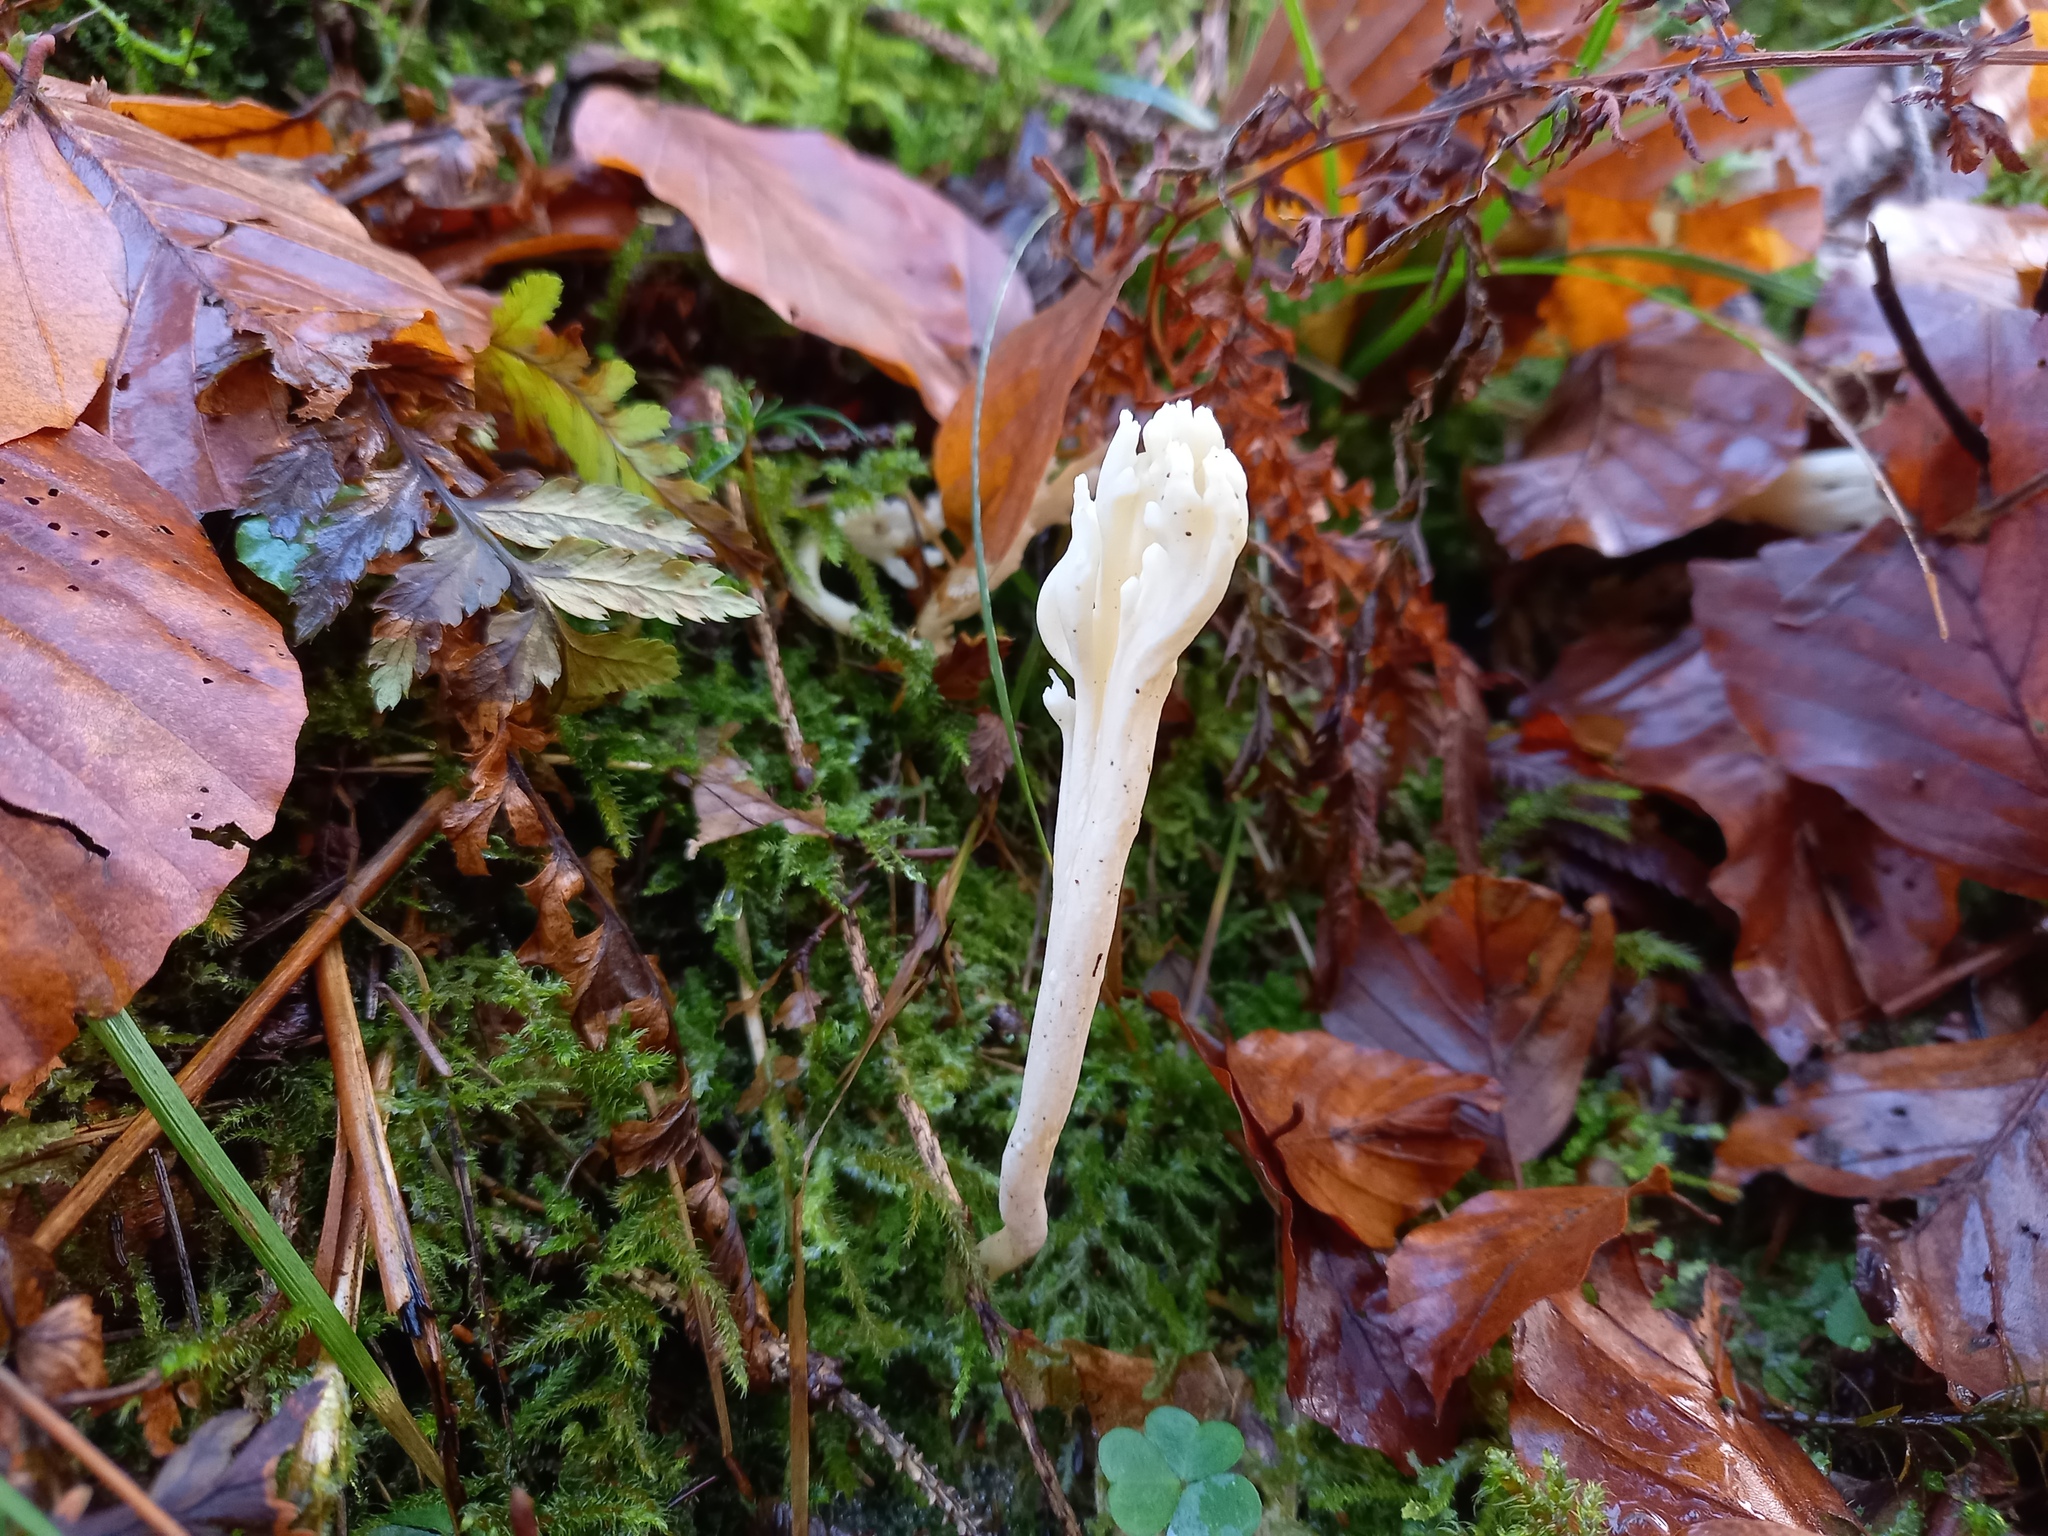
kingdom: Fungi
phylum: Basidiomycota
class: Agaricomycetes
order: Cantharellales
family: Hydnaceae
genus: Clavulina
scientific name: Clavulina rugosa
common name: Wrinkled club
